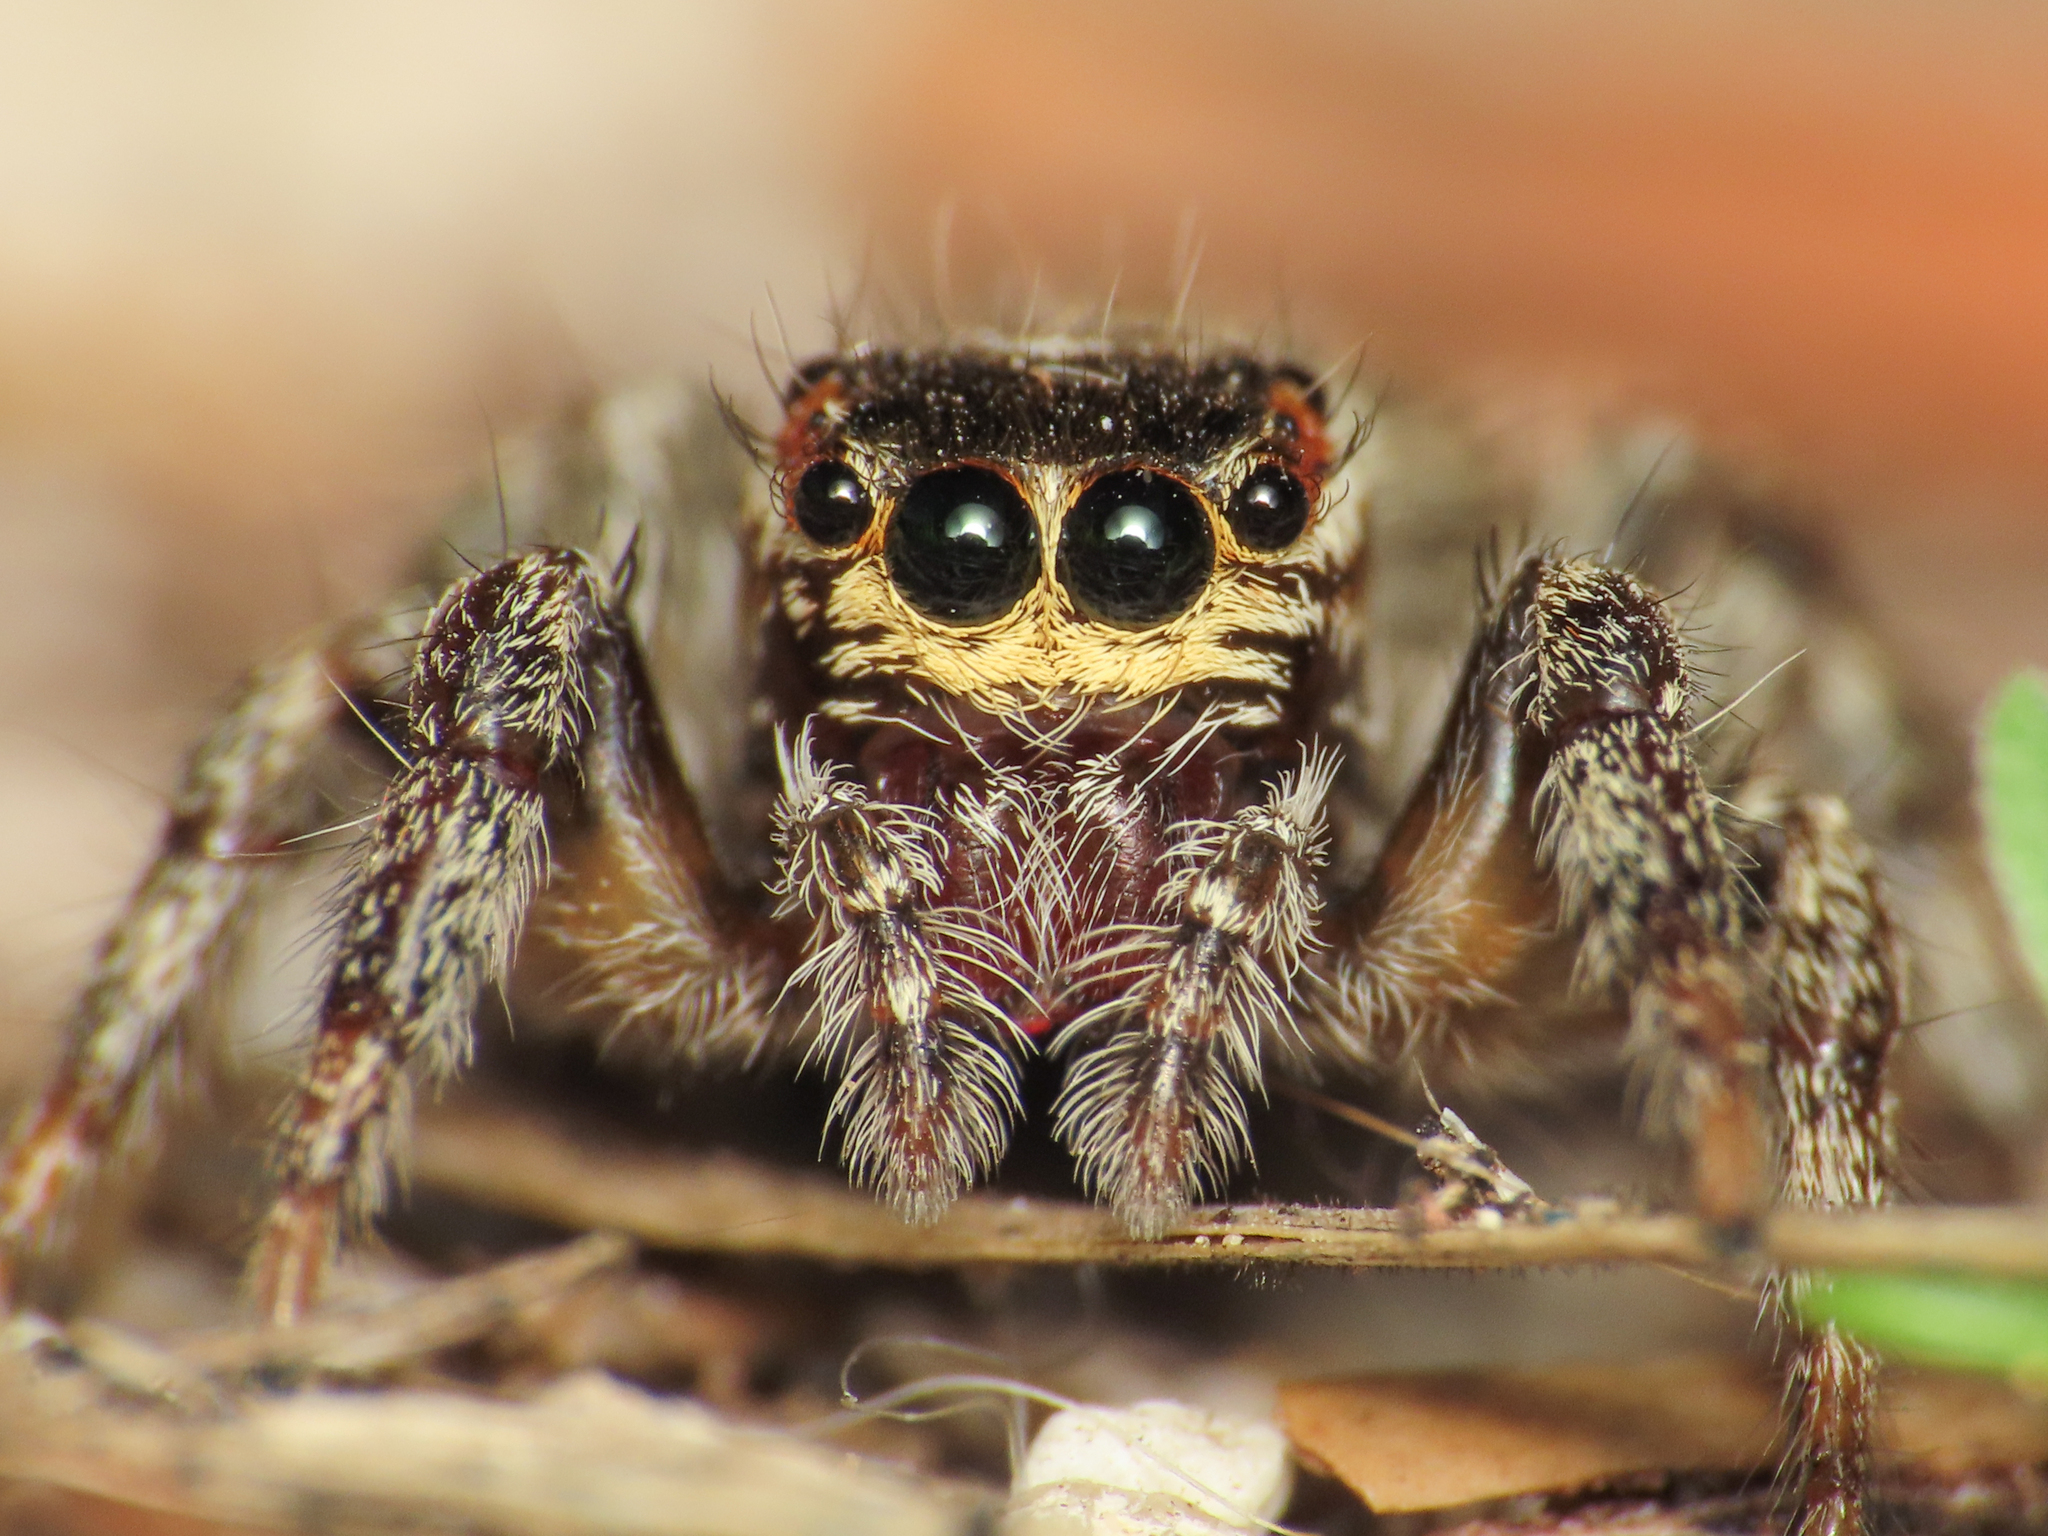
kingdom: Animalia
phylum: Arthropoda
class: Arachnida
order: Araneae
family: Salticidae
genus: Evarcha
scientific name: Evarcha jucunda
